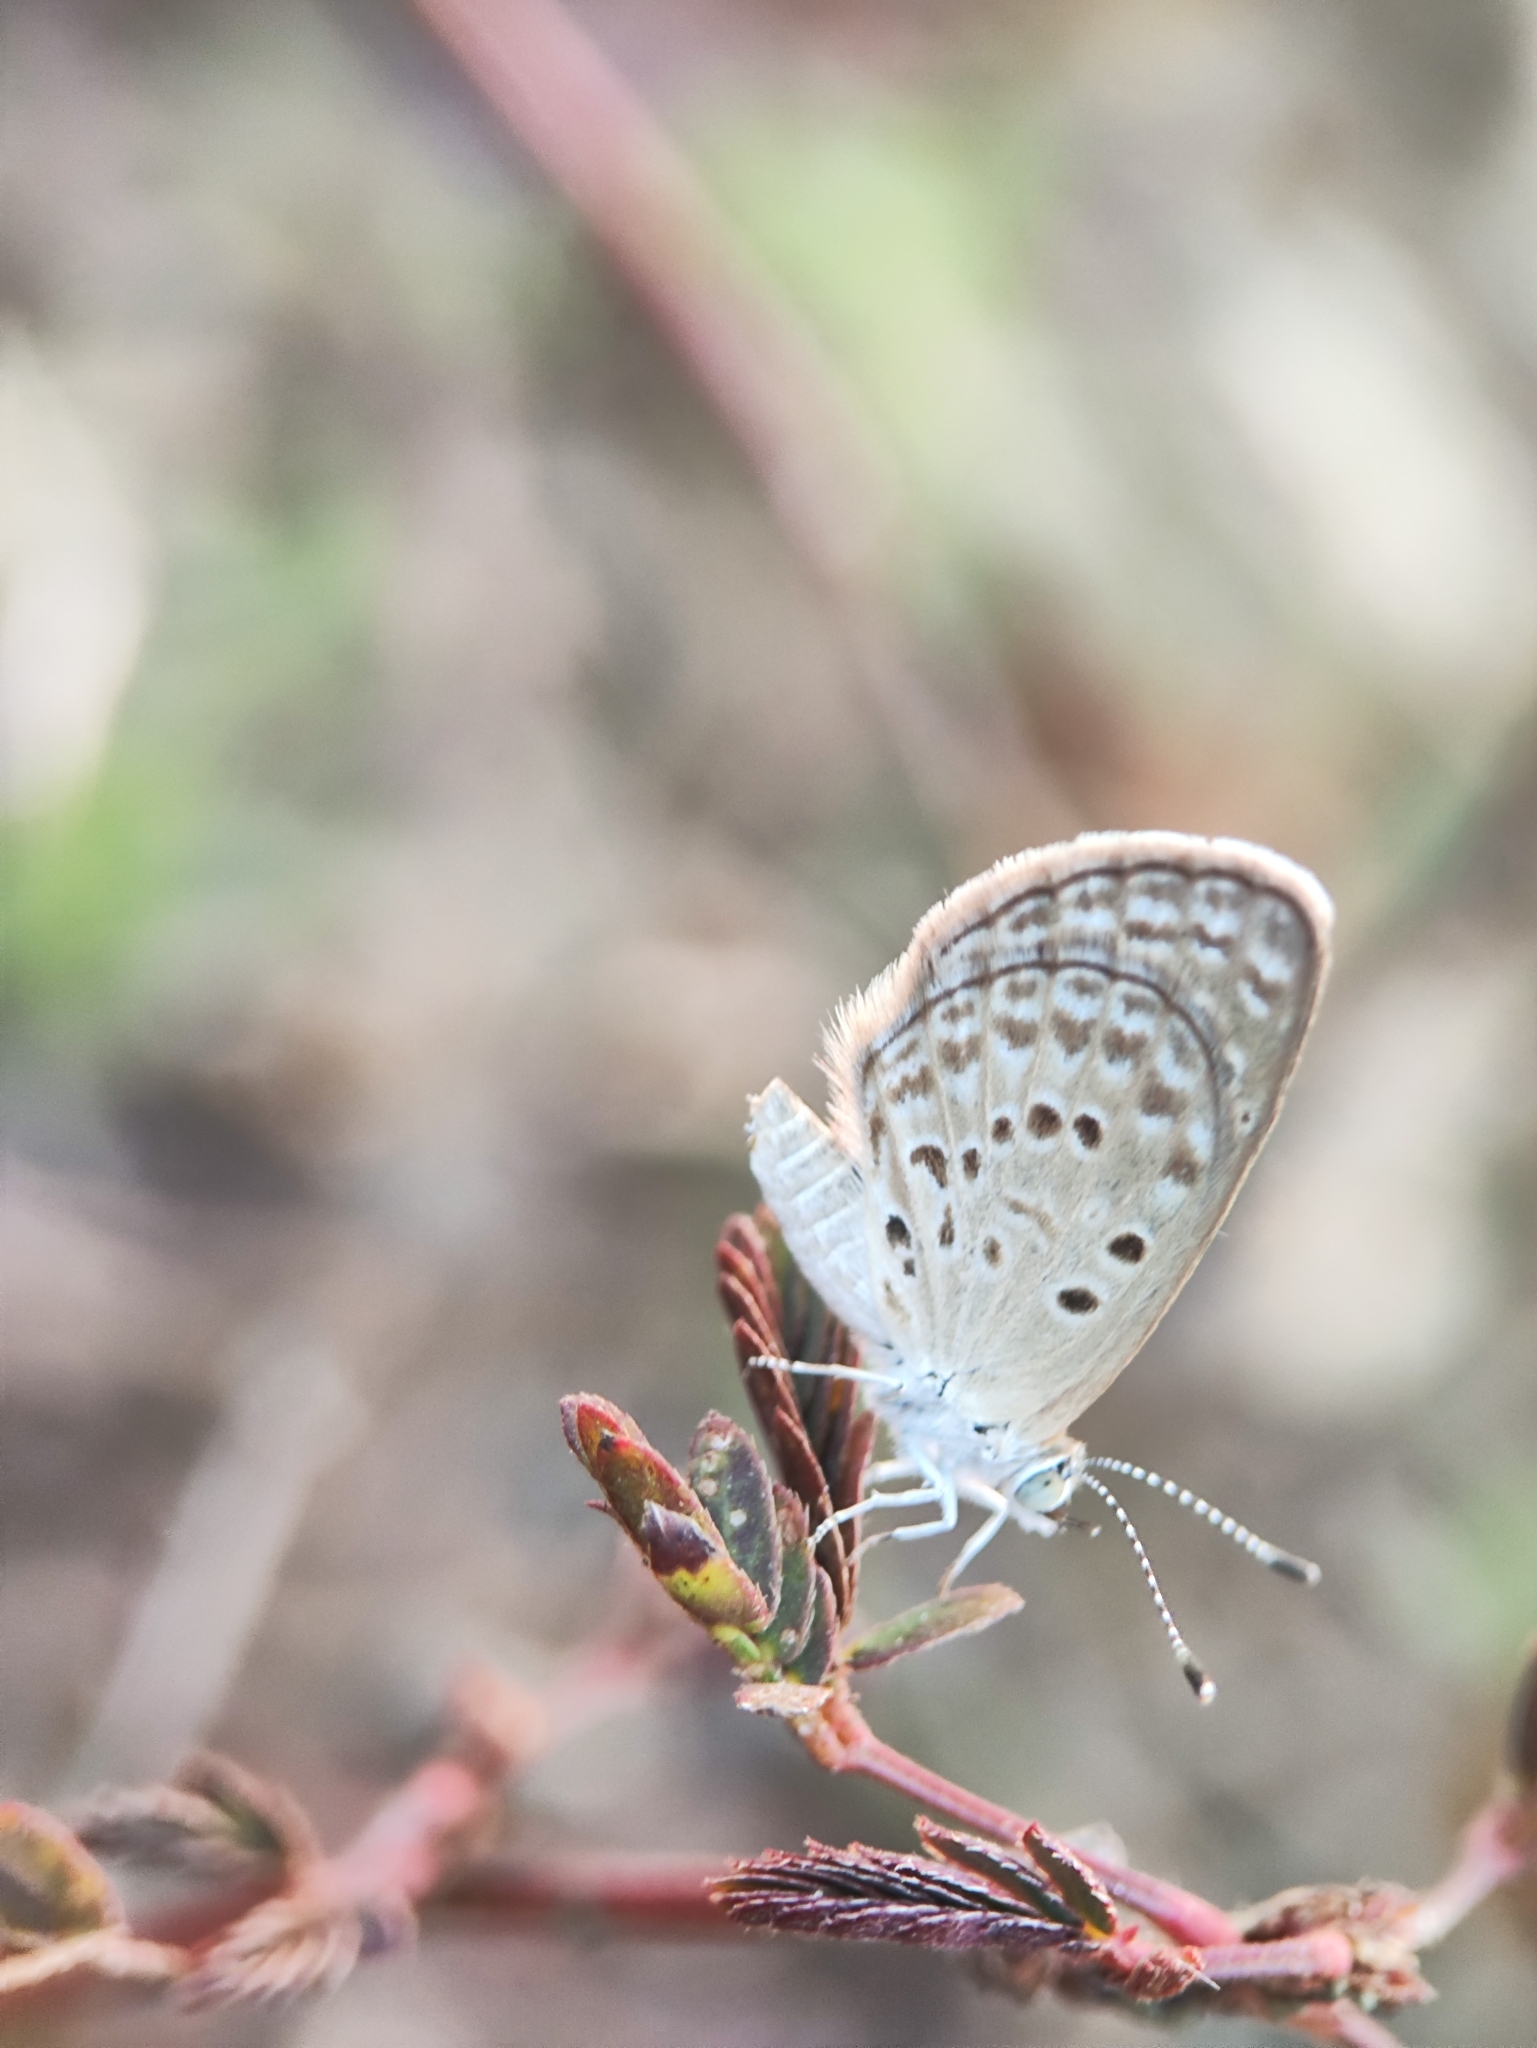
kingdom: Animalia
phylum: Arthropoda
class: Insecta
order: Lepidoptera
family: Lycaenidae
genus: Zizina
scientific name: Zizina otis
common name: Lesser grass blue
